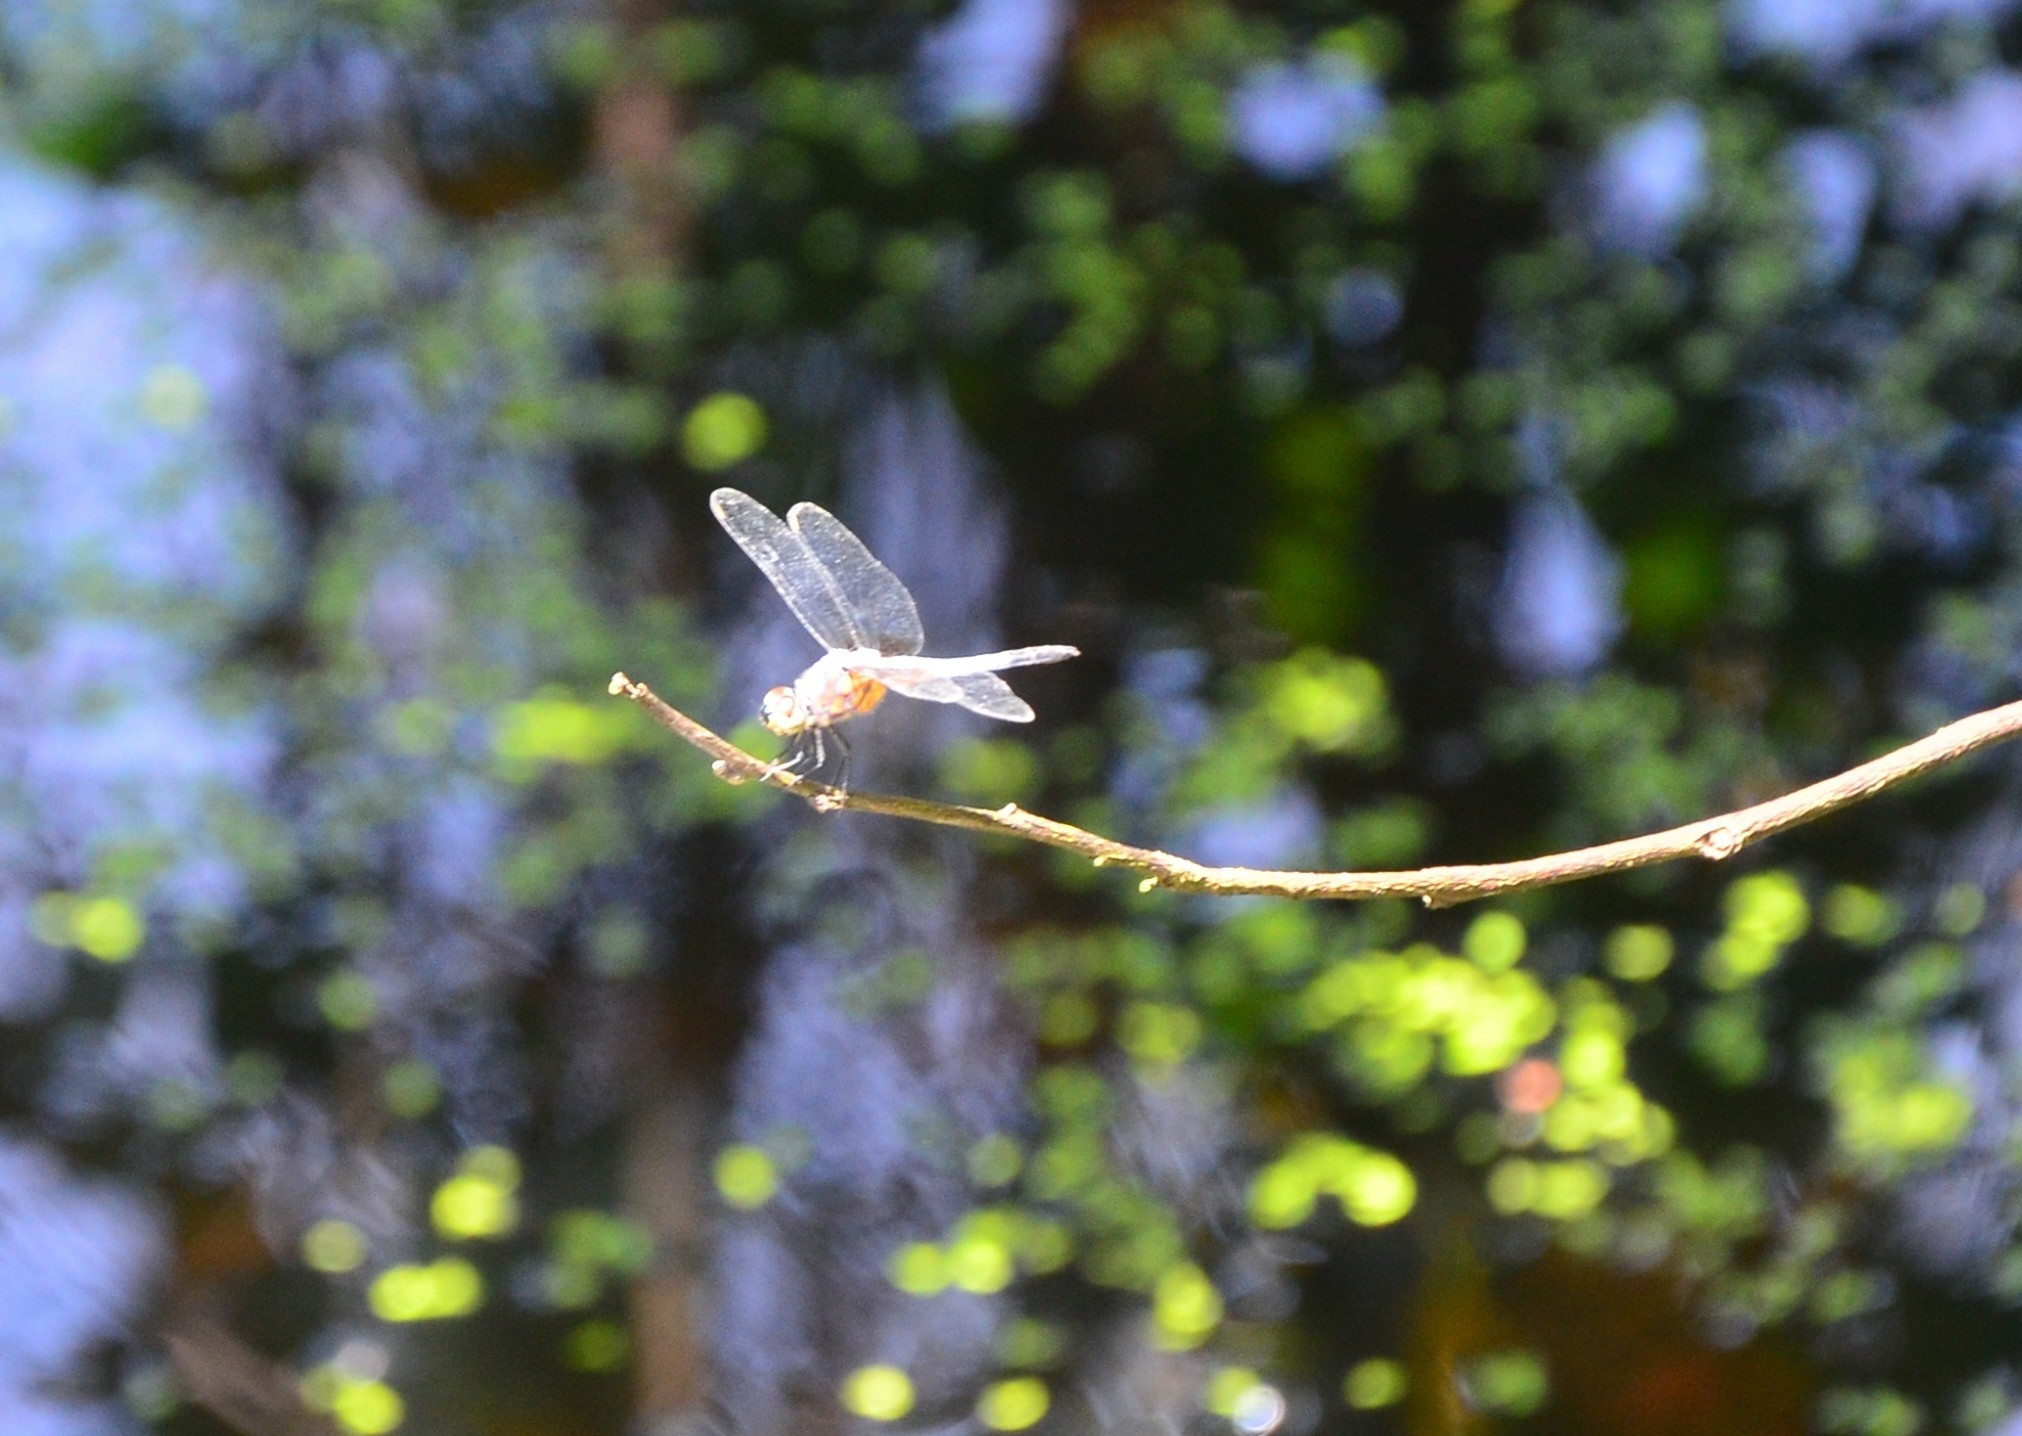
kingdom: Animalia
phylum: Arthropoda
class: Insecta
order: Odonata
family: Libellulidae
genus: Brachydiplax
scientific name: Brachydiplax chalybea
